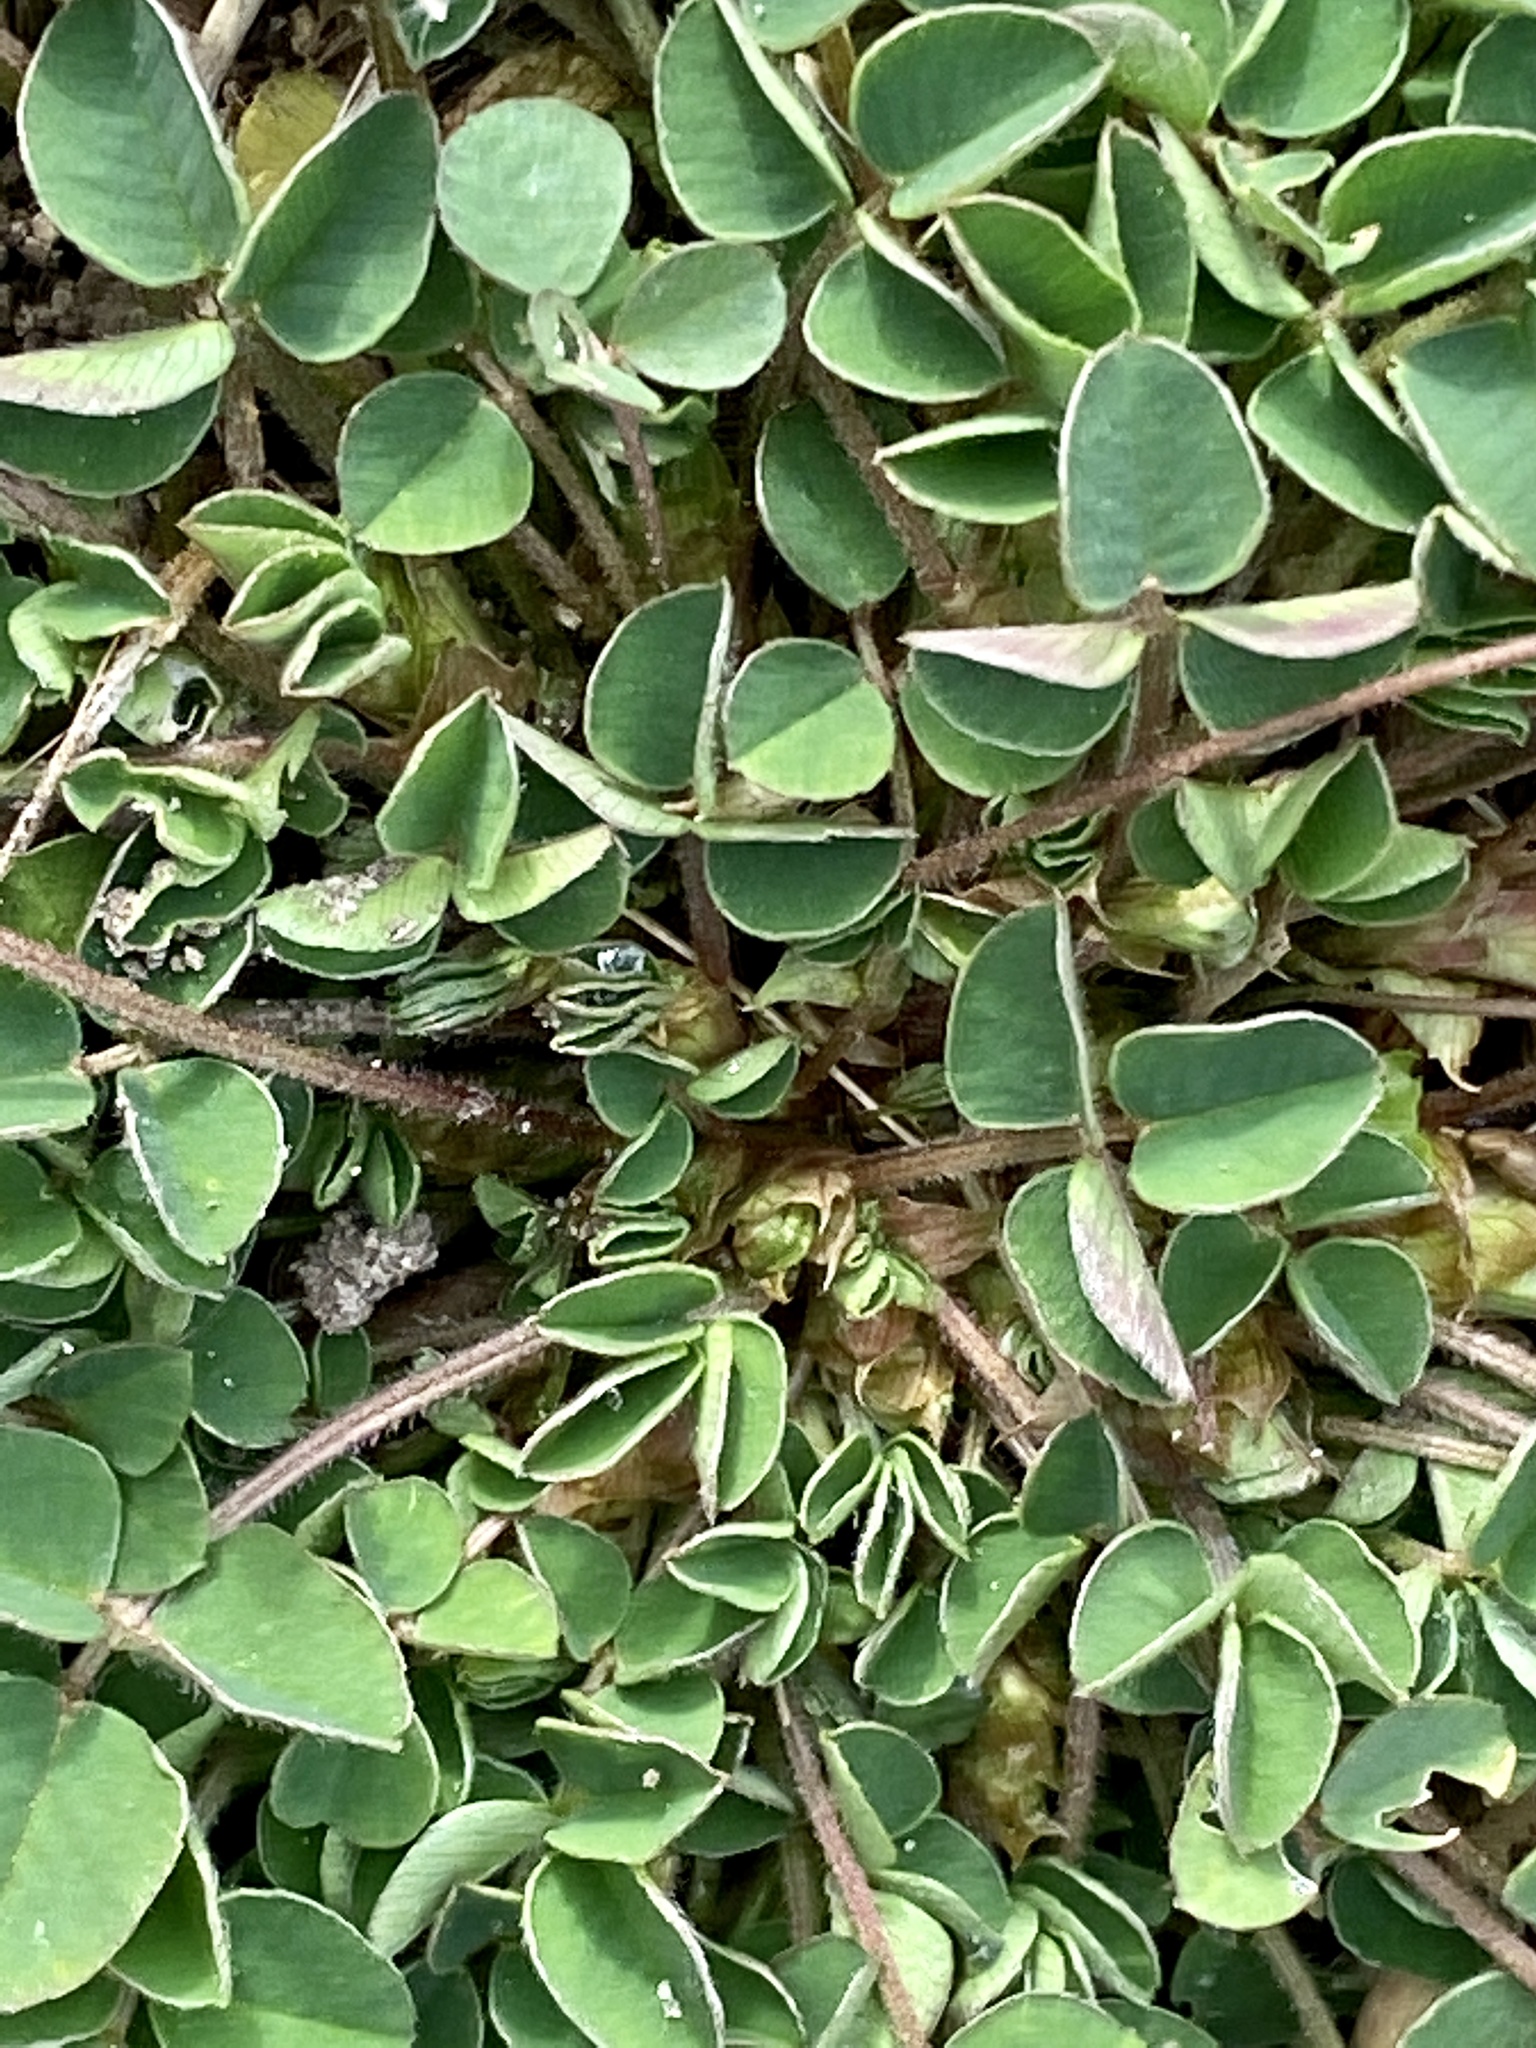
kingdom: Plantae
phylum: Tracheophyta
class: Magnoliopsida
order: Fabales
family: Fabaceae
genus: Medicago
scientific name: Medicago lupulina
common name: Black medick
